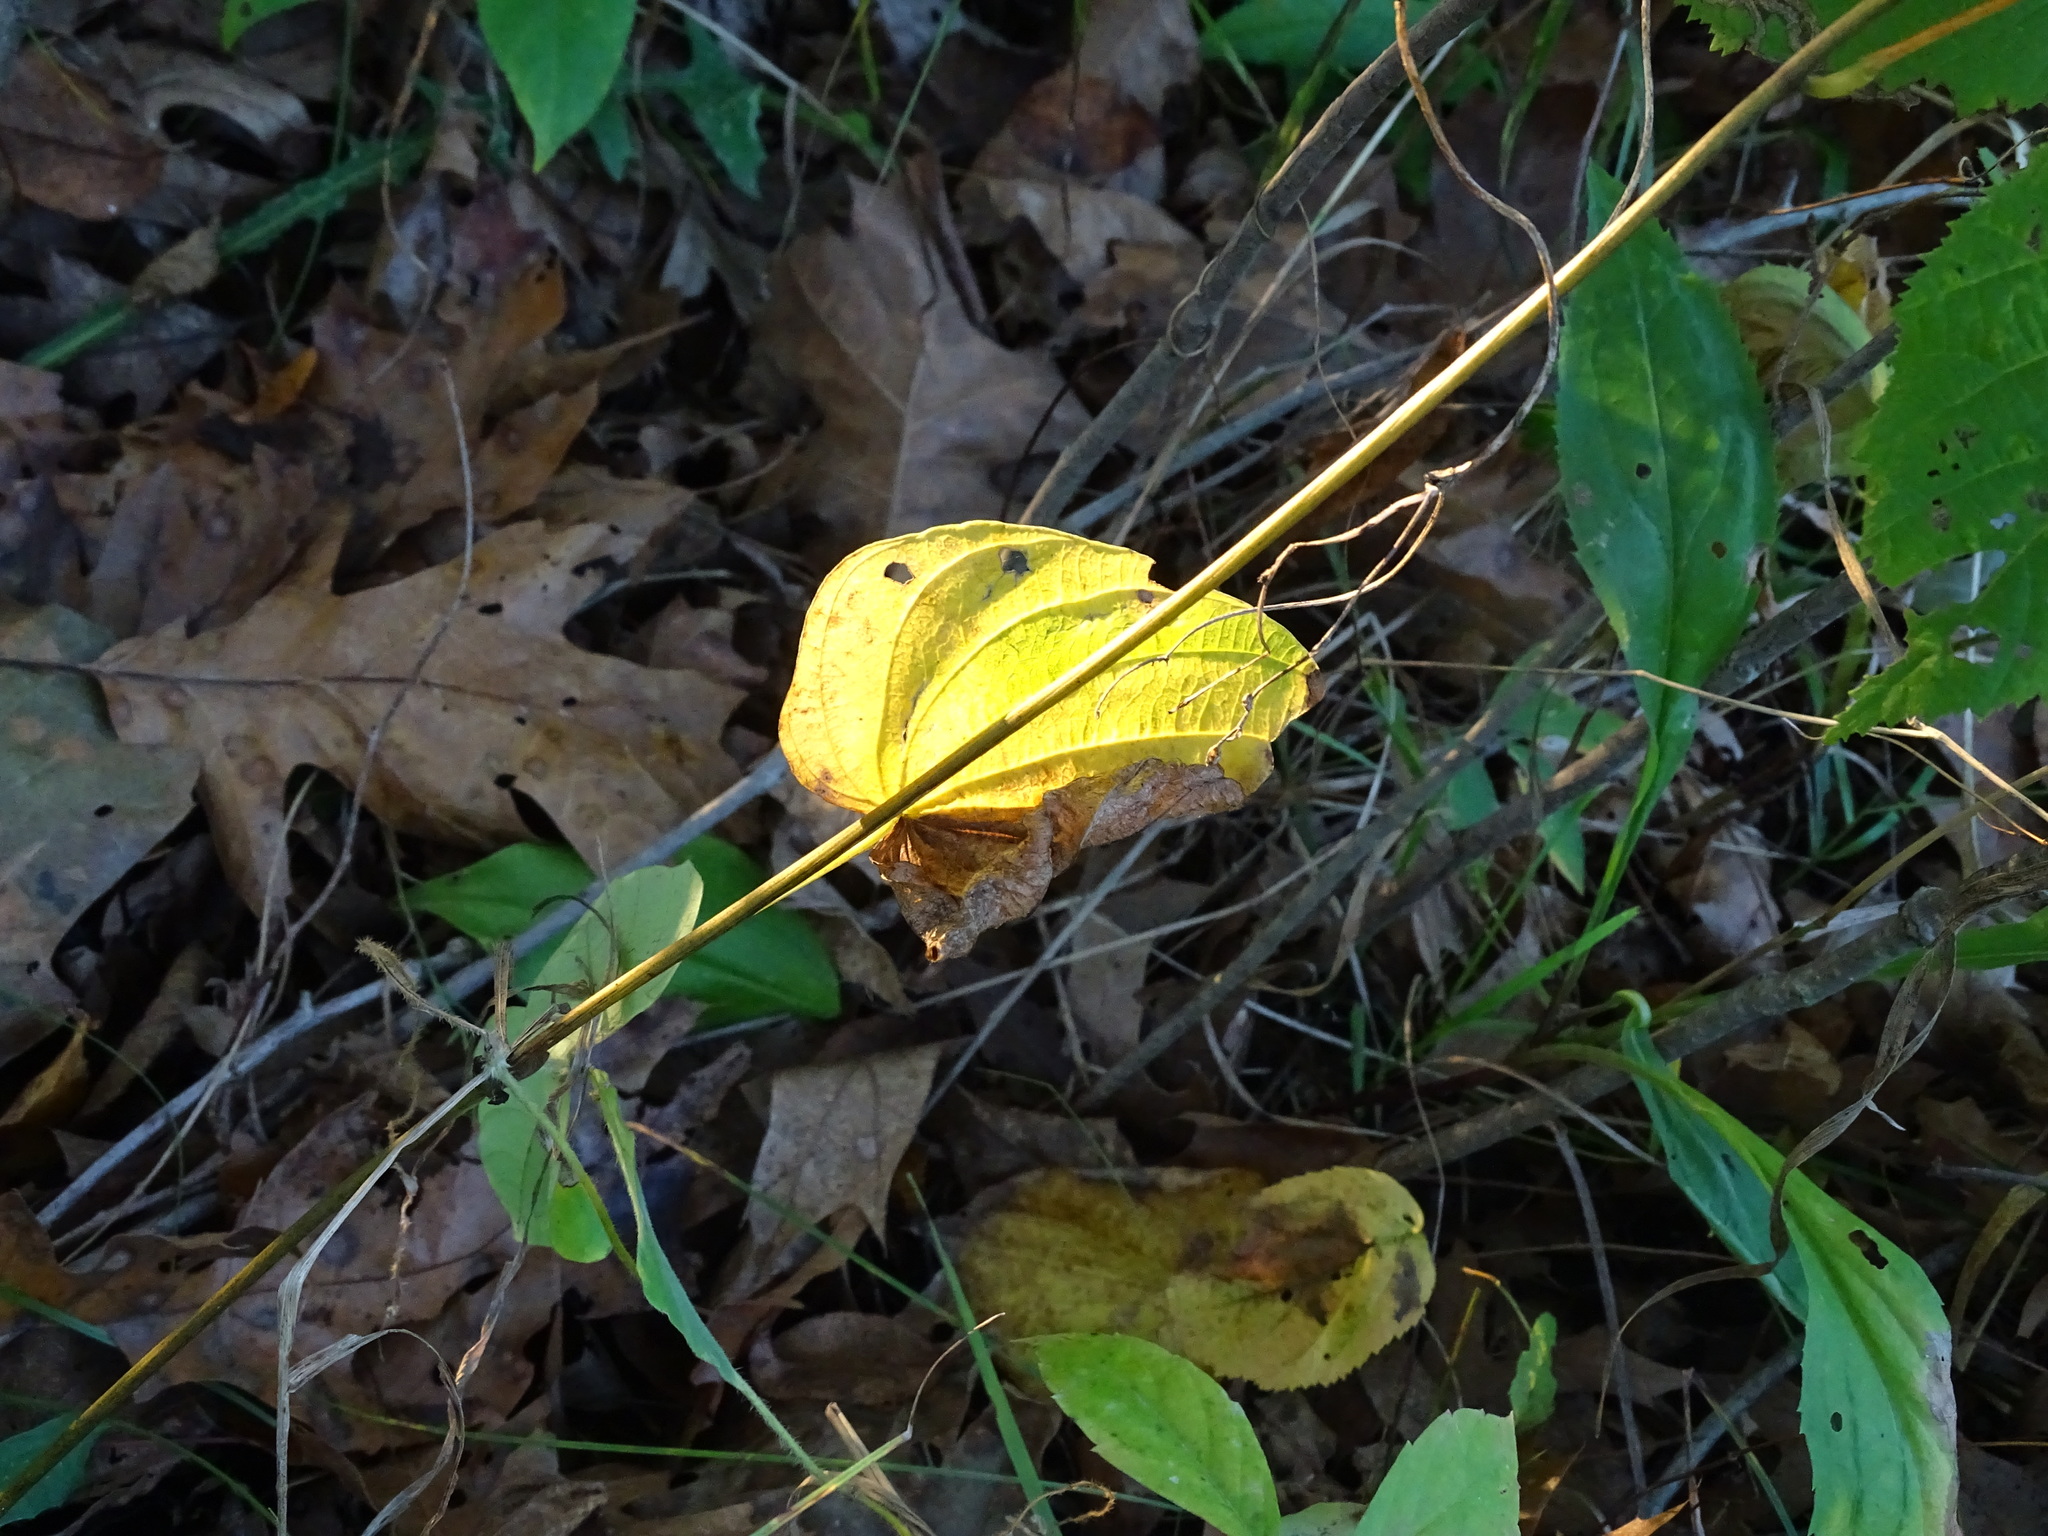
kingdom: Plantae
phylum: Tracheophyta
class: Liliopsida
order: Dioscoreales
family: Dioscoreaceae
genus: Dioscorea
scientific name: Dioscorea villosa
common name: Wild yam
